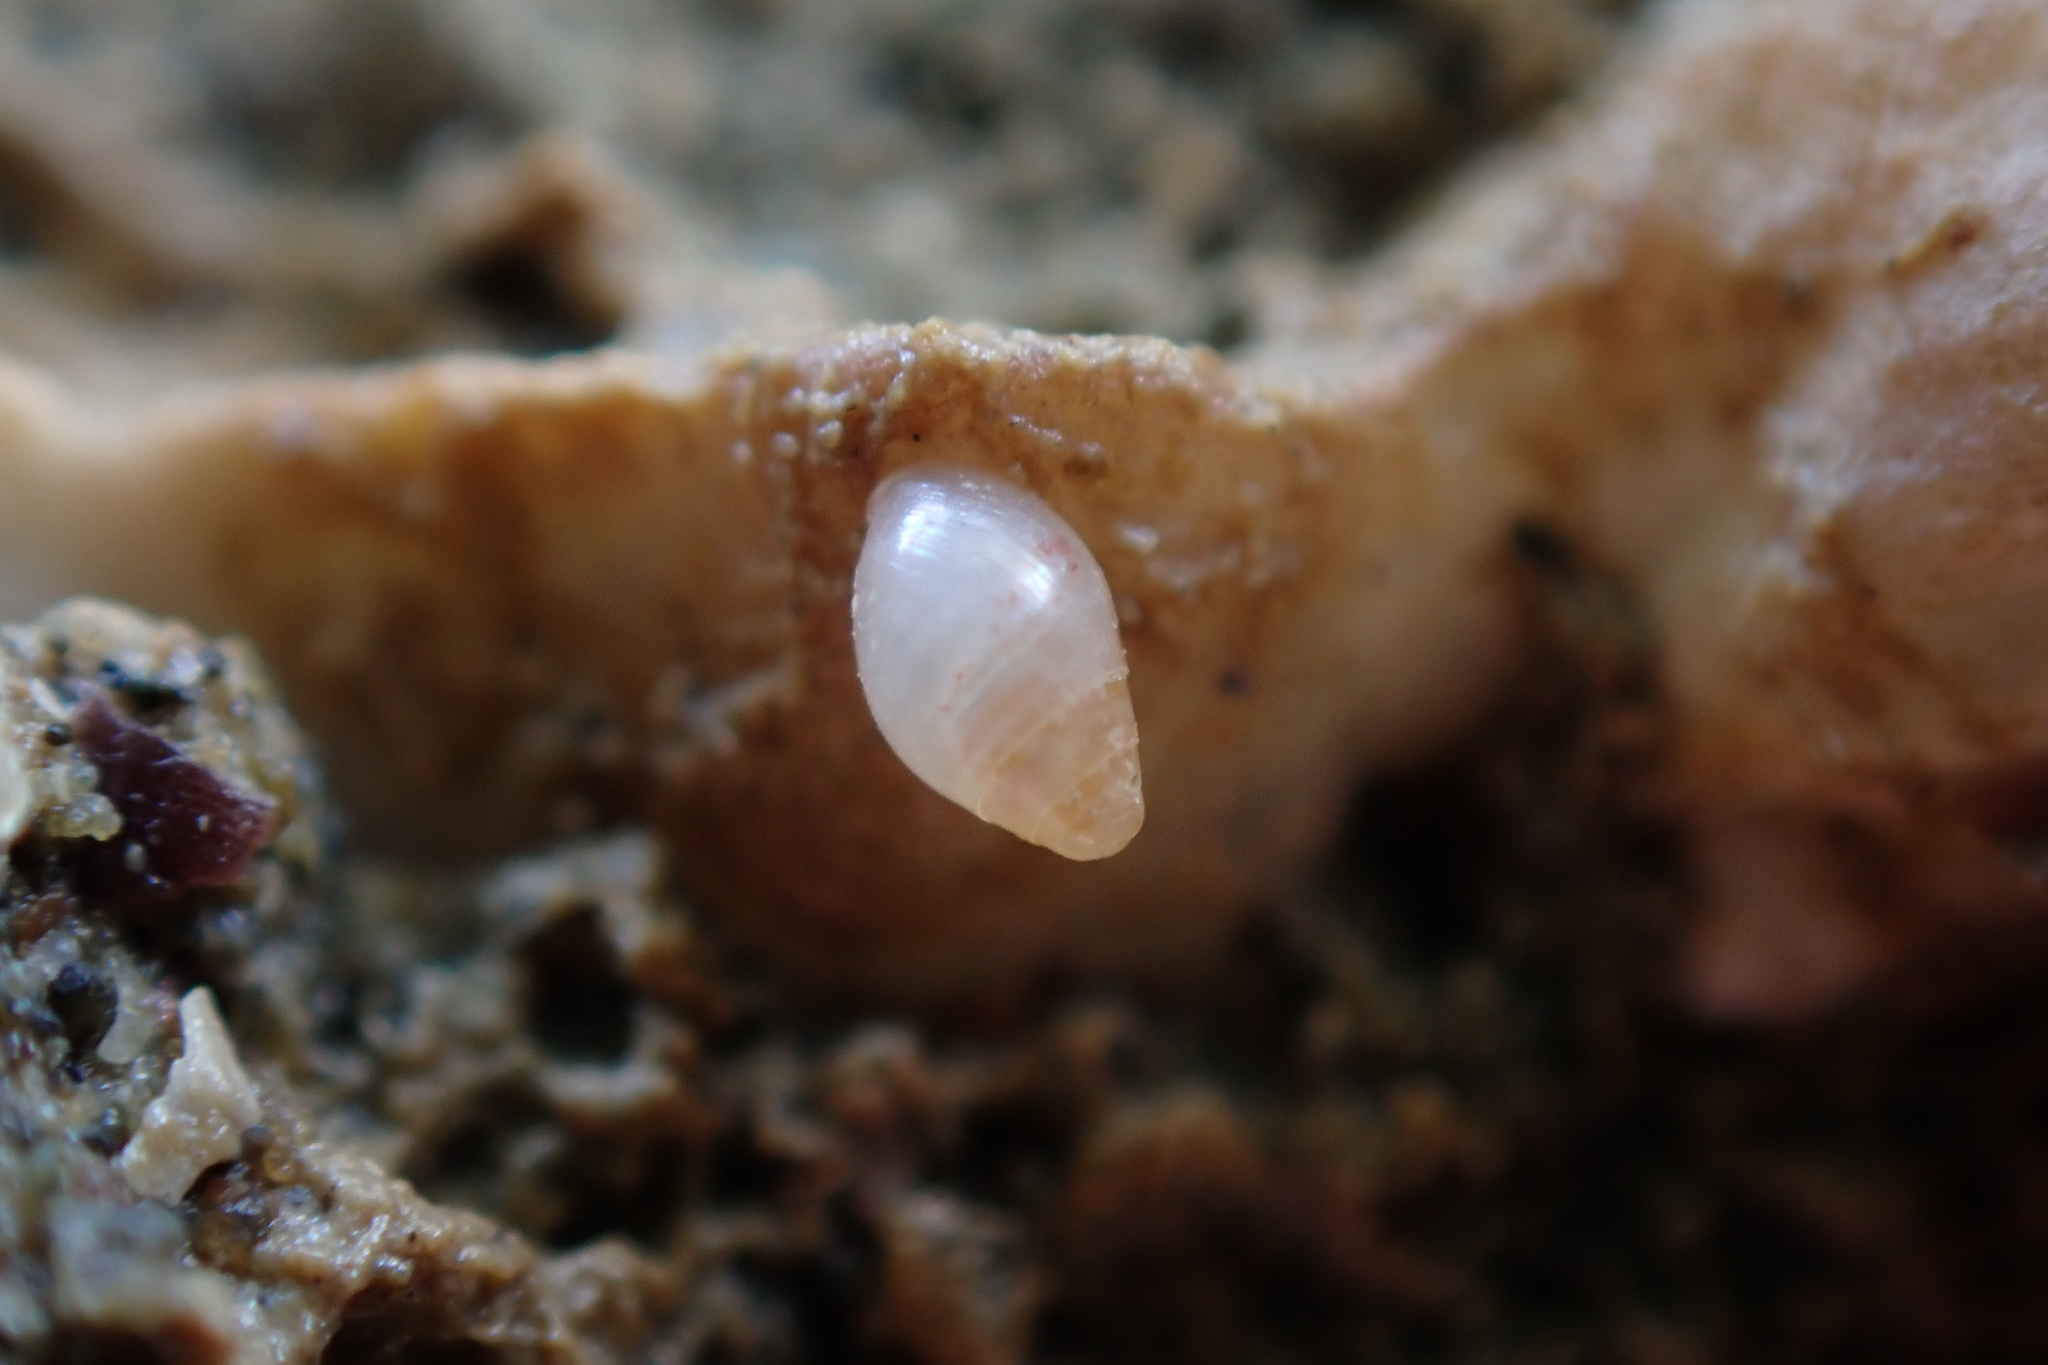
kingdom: Animalia
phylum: Mollusca
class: Gastropoda
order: Ellobiida
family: Ellobiidae
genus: Leuconopsis
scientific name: Leuconopsis obsoleta
